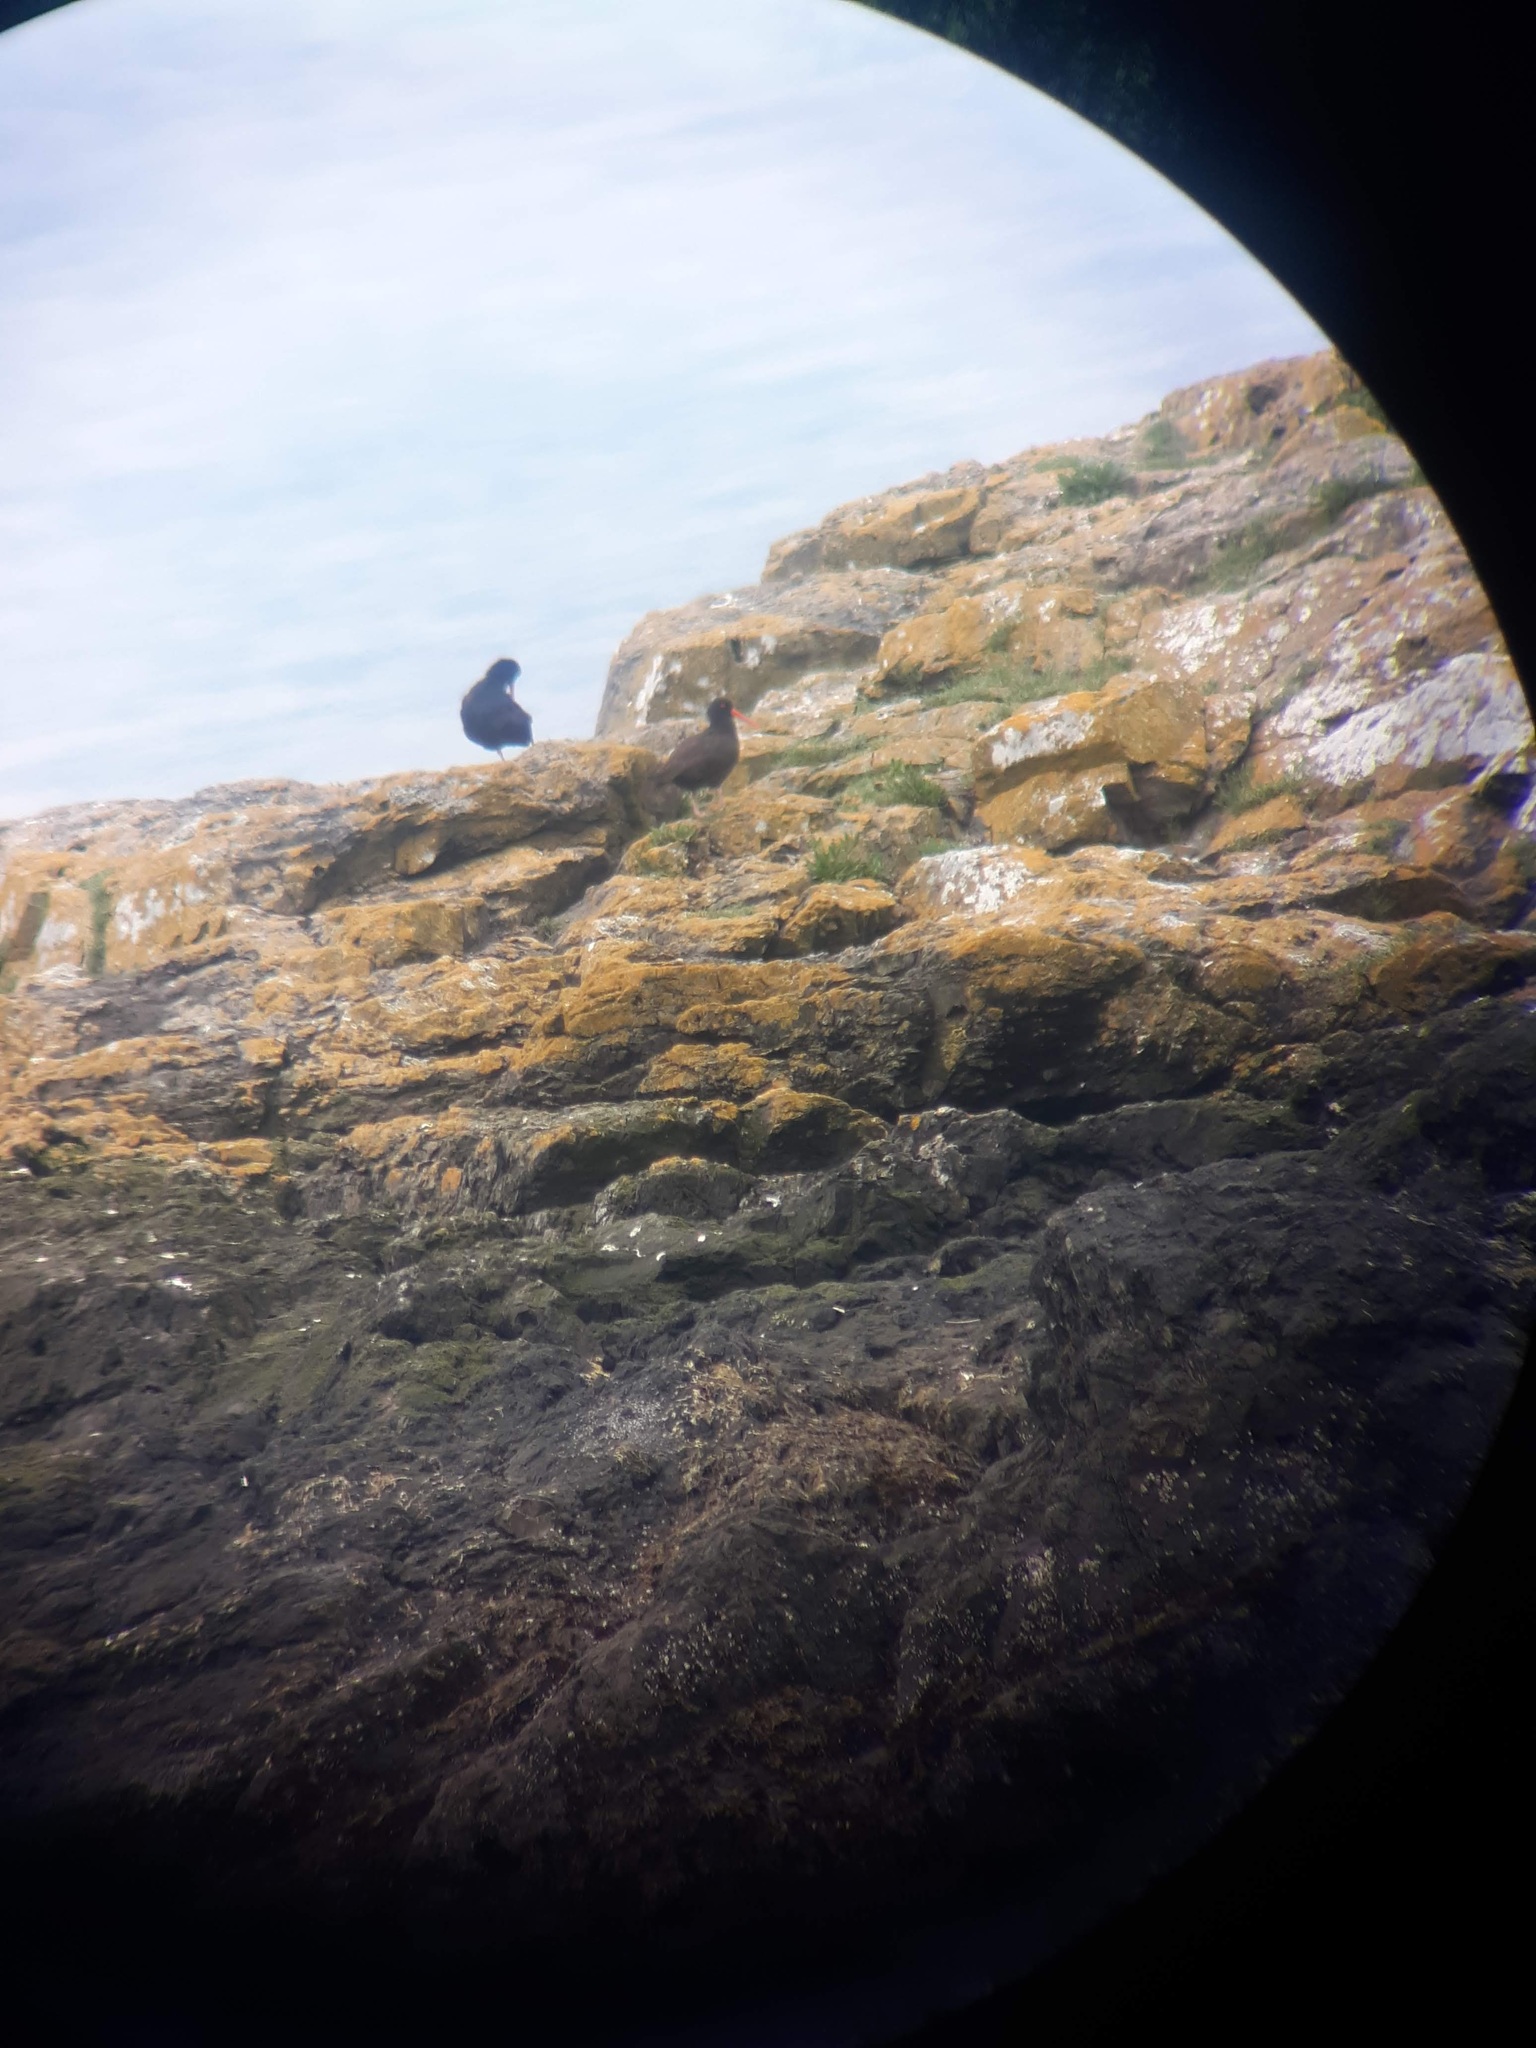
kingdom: Animalia
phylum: Chordata
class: Aves
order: Charadriiformes
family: Haematopodidae
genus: Haematopus
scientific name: Haematopus bachmani
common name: Black oystercatcher
